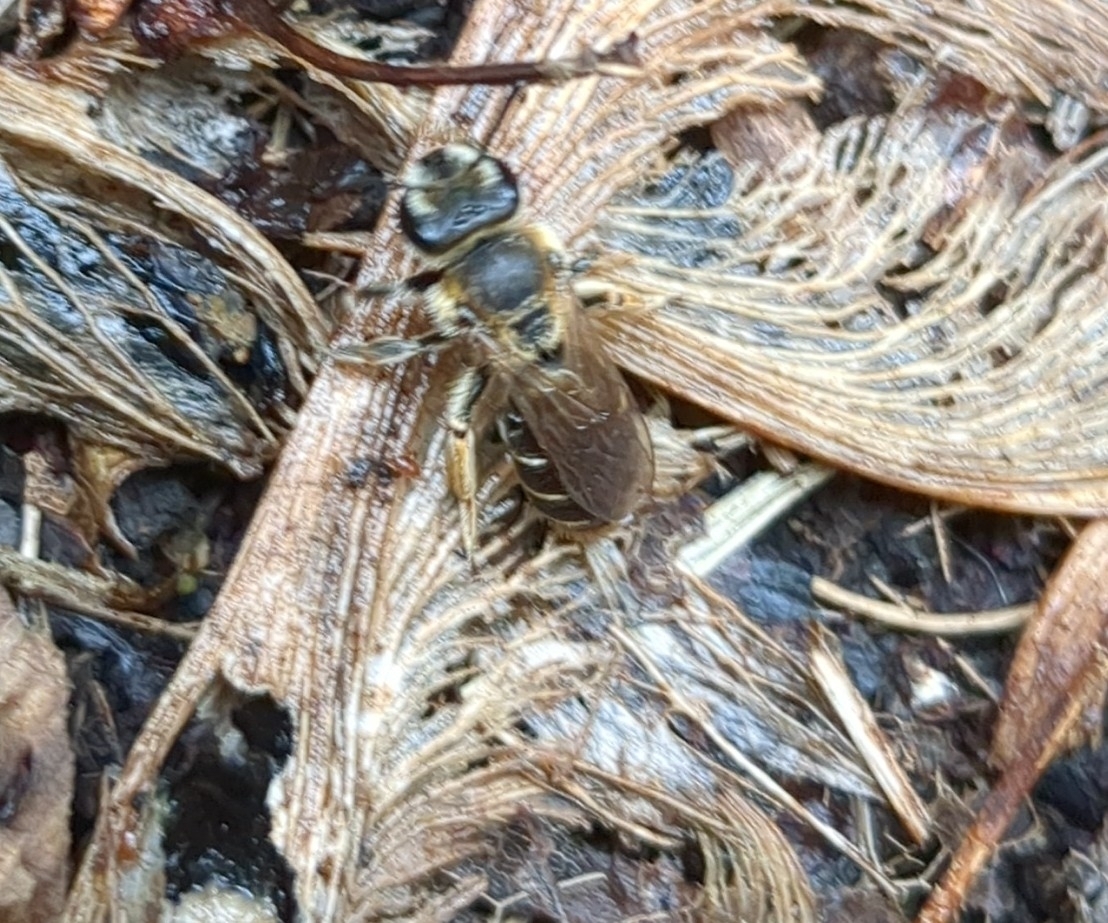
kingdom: Animalia
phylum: Arthropoda
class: Insecta
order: Hymenoptera
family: Andrenidae
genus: Andrena
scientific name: Andrena wilkella
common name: Wilke's mining bee
